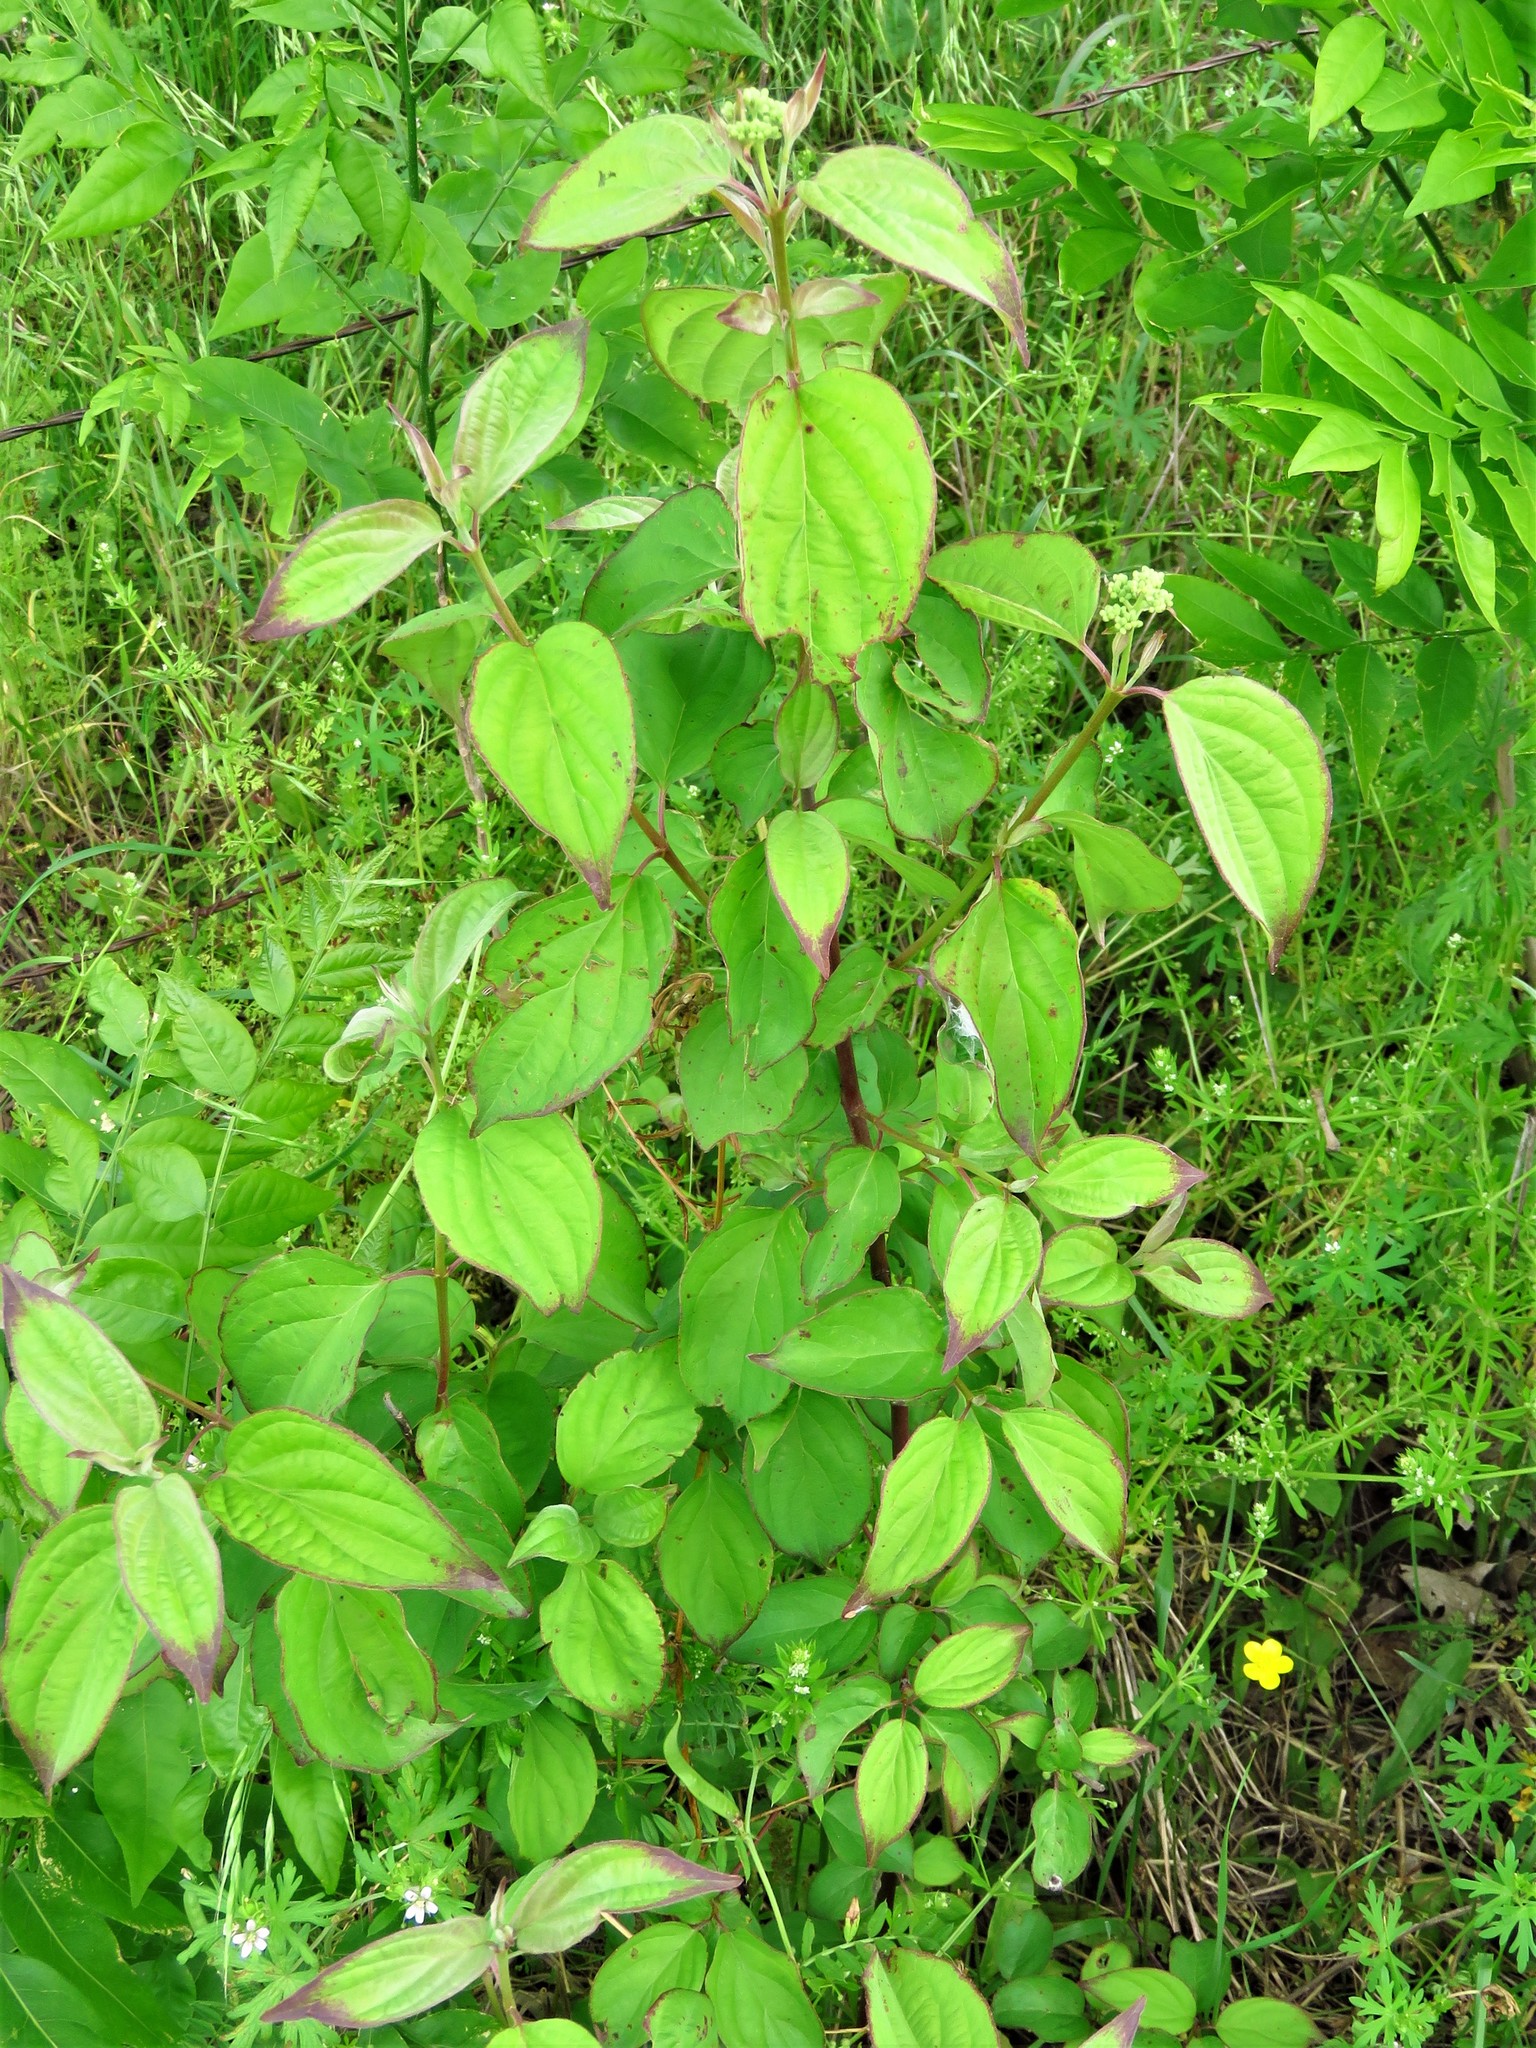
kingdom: Plantae
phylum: Tracheophyta
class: Magnoliopsida
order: Cornales
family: Cornaceae
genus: Cornus
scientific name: Cornus drummondii
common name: Rough-leaf dogwood
